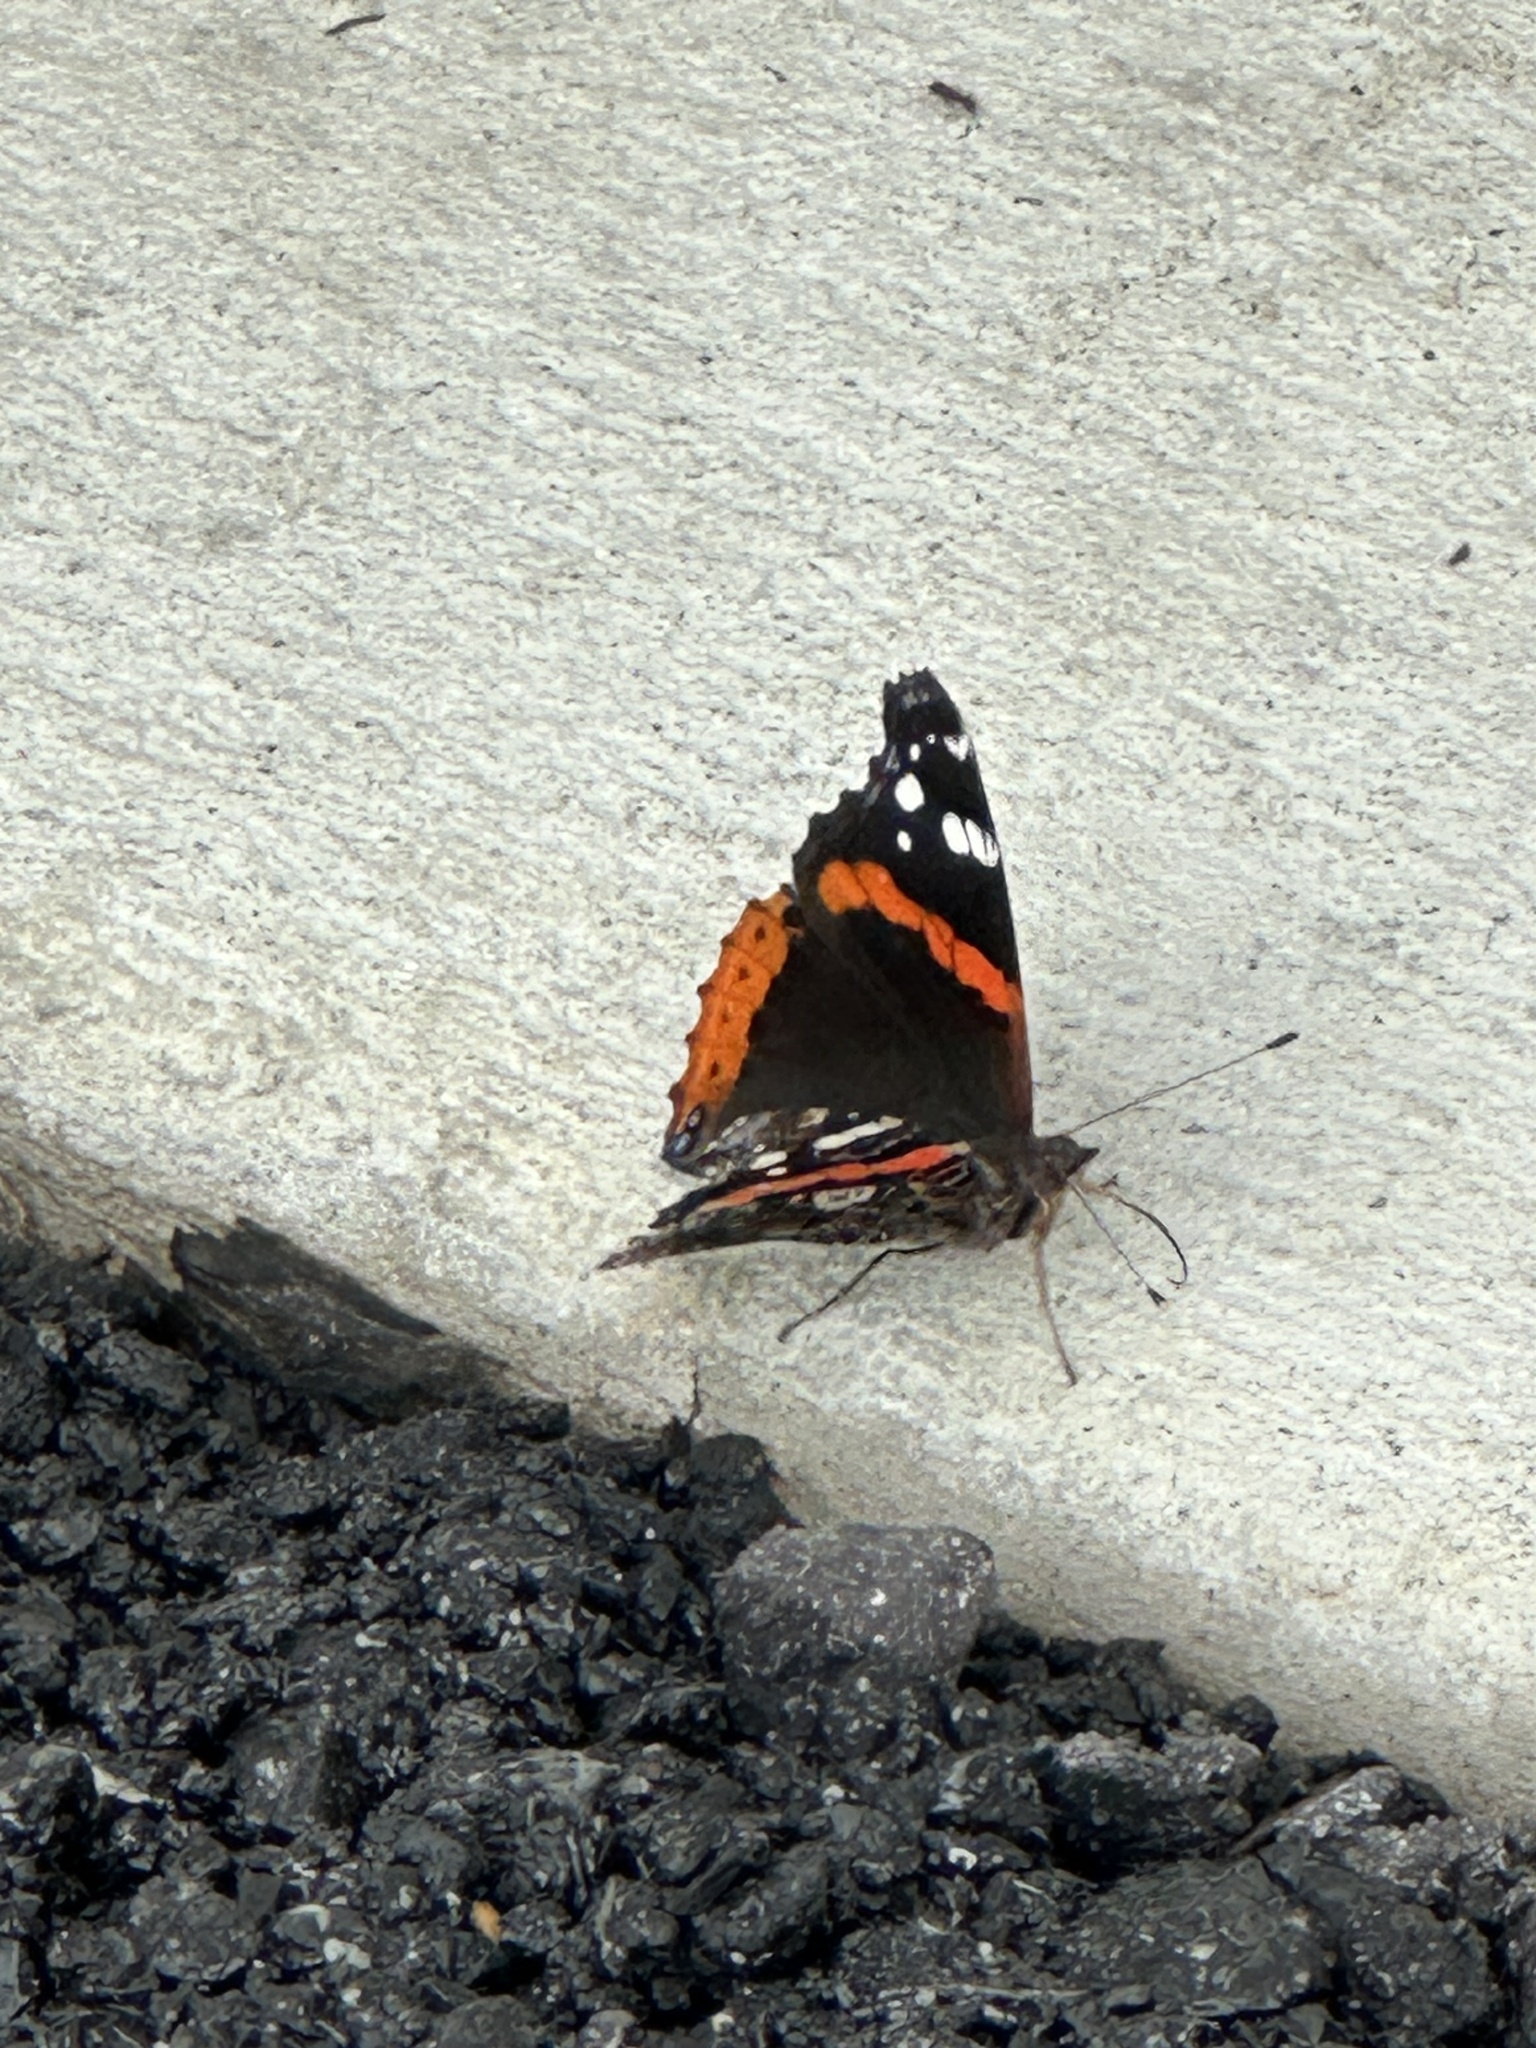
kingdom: Animalia
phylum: Arthropoda
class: Insecta
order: Lepidoptera
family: Nymphalidae
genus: Vanessa
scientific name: Vanessa atalanta
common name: Red admiral
